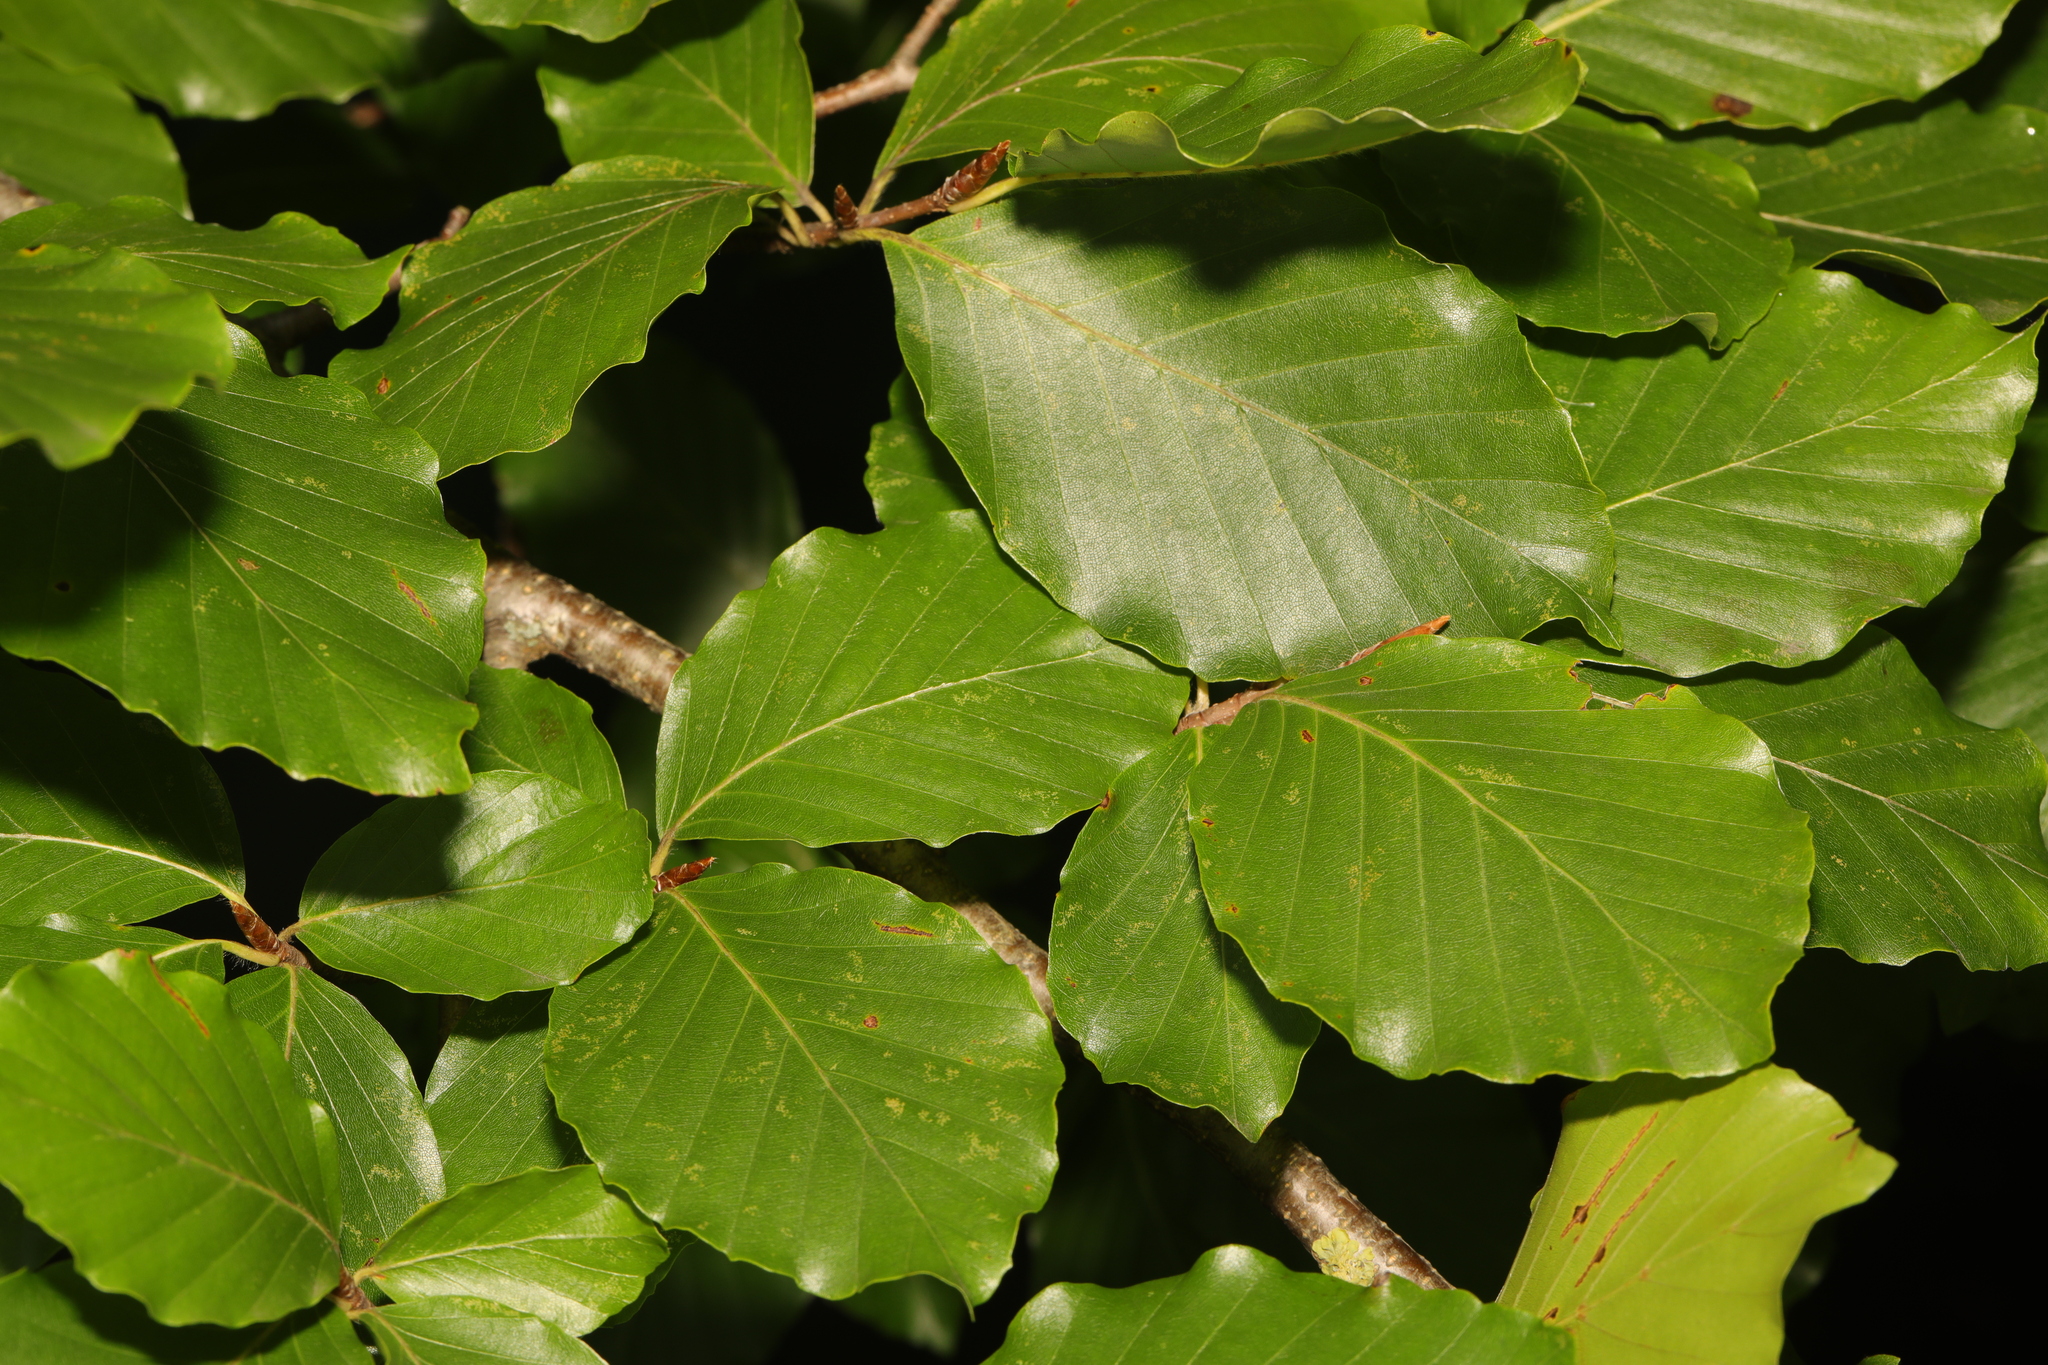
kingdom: Plantae
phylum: Tracheophyta
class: Magnoliopsida
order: Fagales
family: Fagaceae
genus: Fagus
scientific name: Fagus sylvatica
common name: Beech
